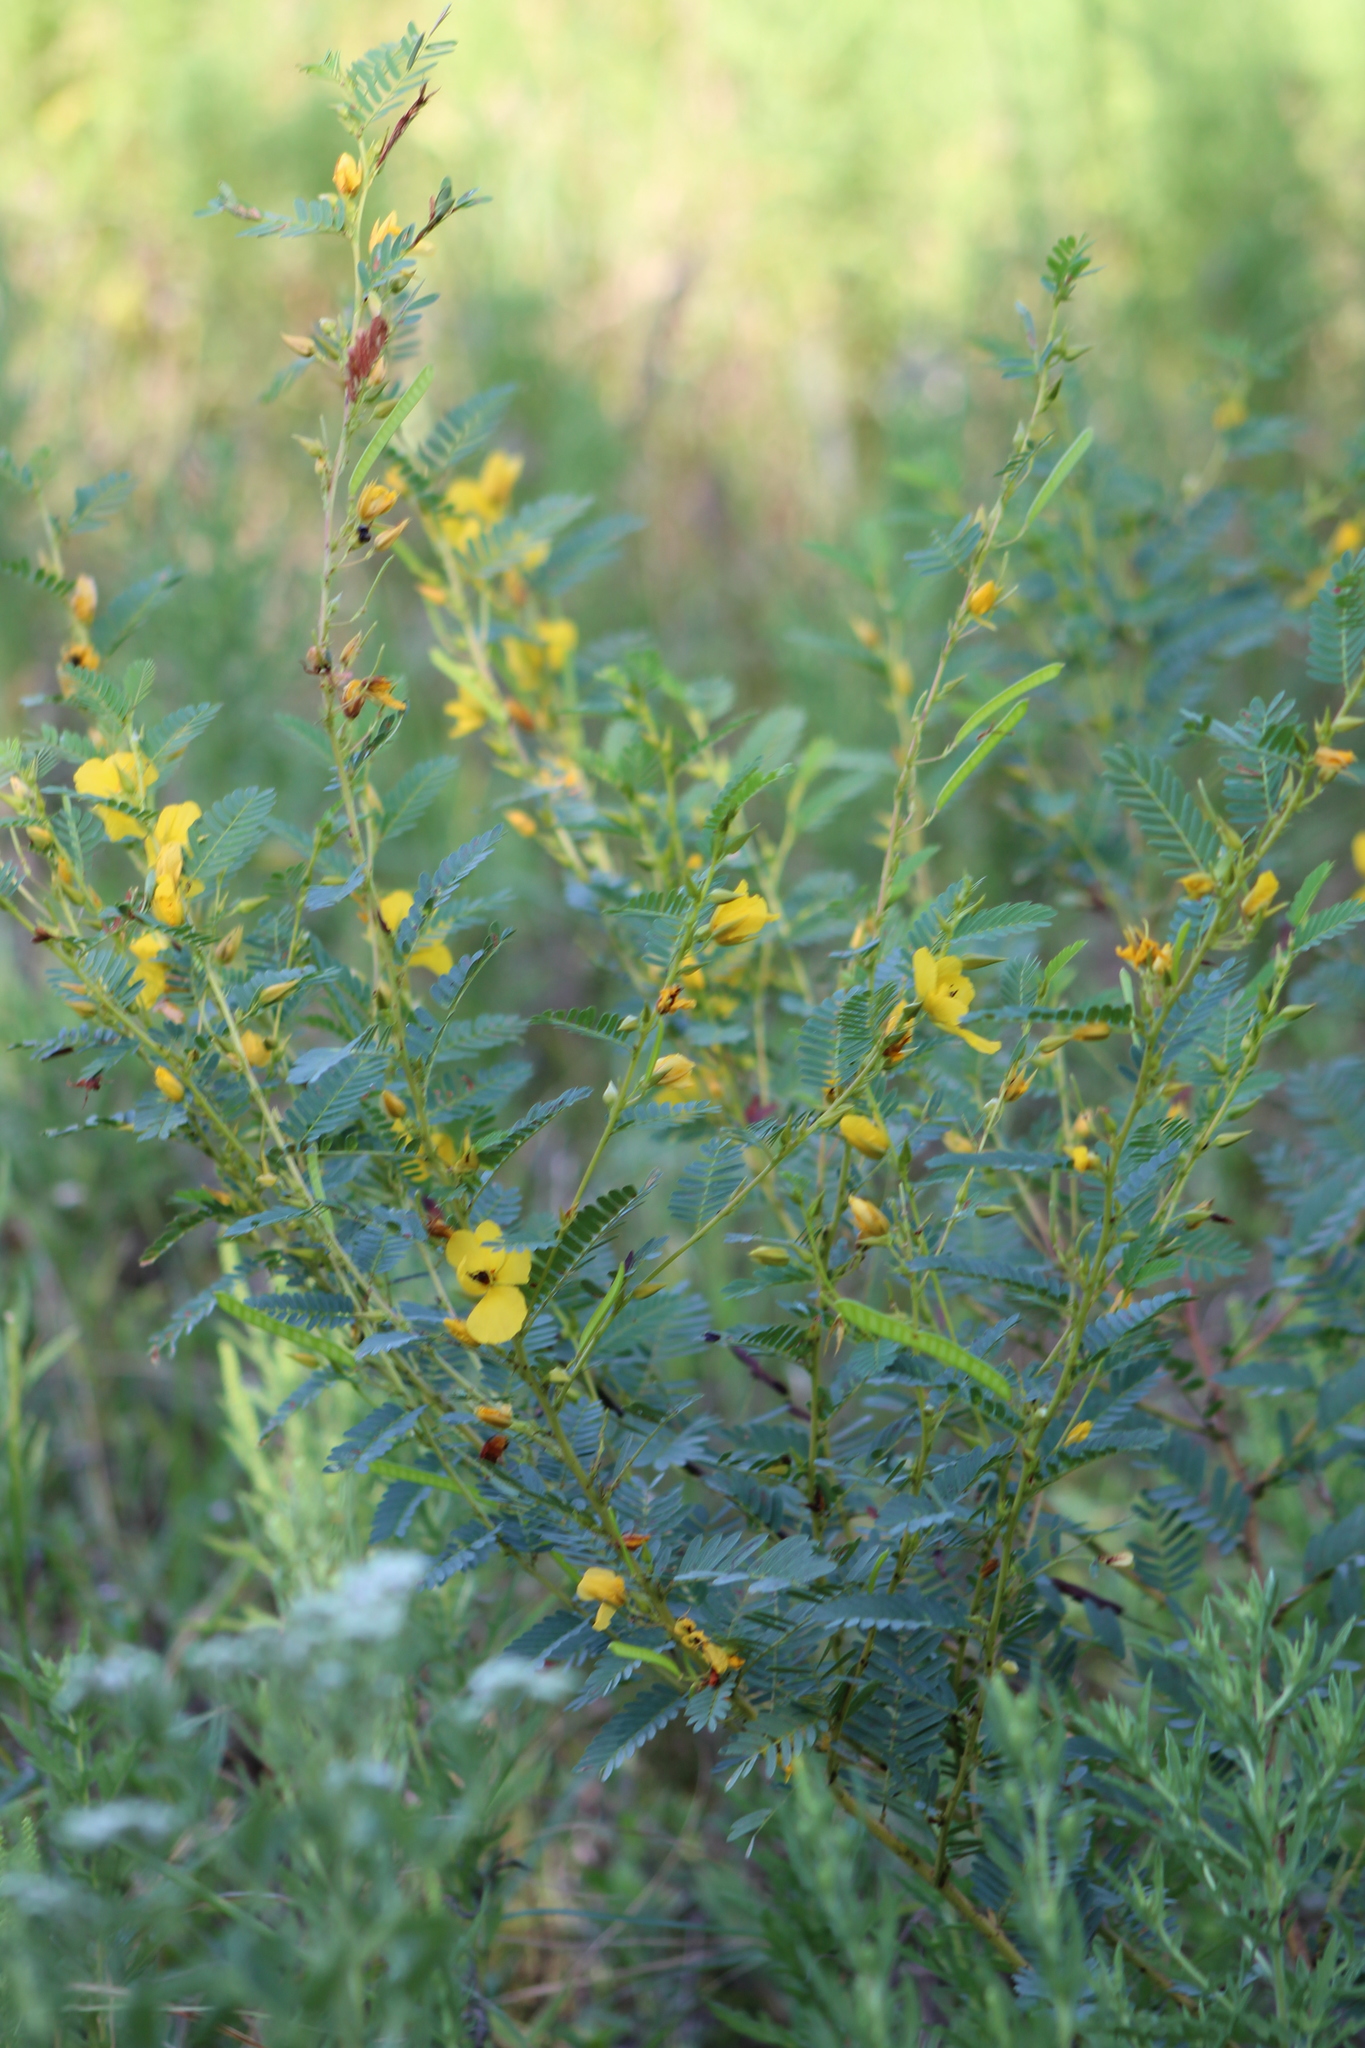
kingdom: Plantae
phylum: Tracheophyta
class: Magnoliopsida
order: Fabales
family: Fabaceae
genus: Chamaecrista
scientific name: Chamaecrista fasciculata
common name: Golden cassia
